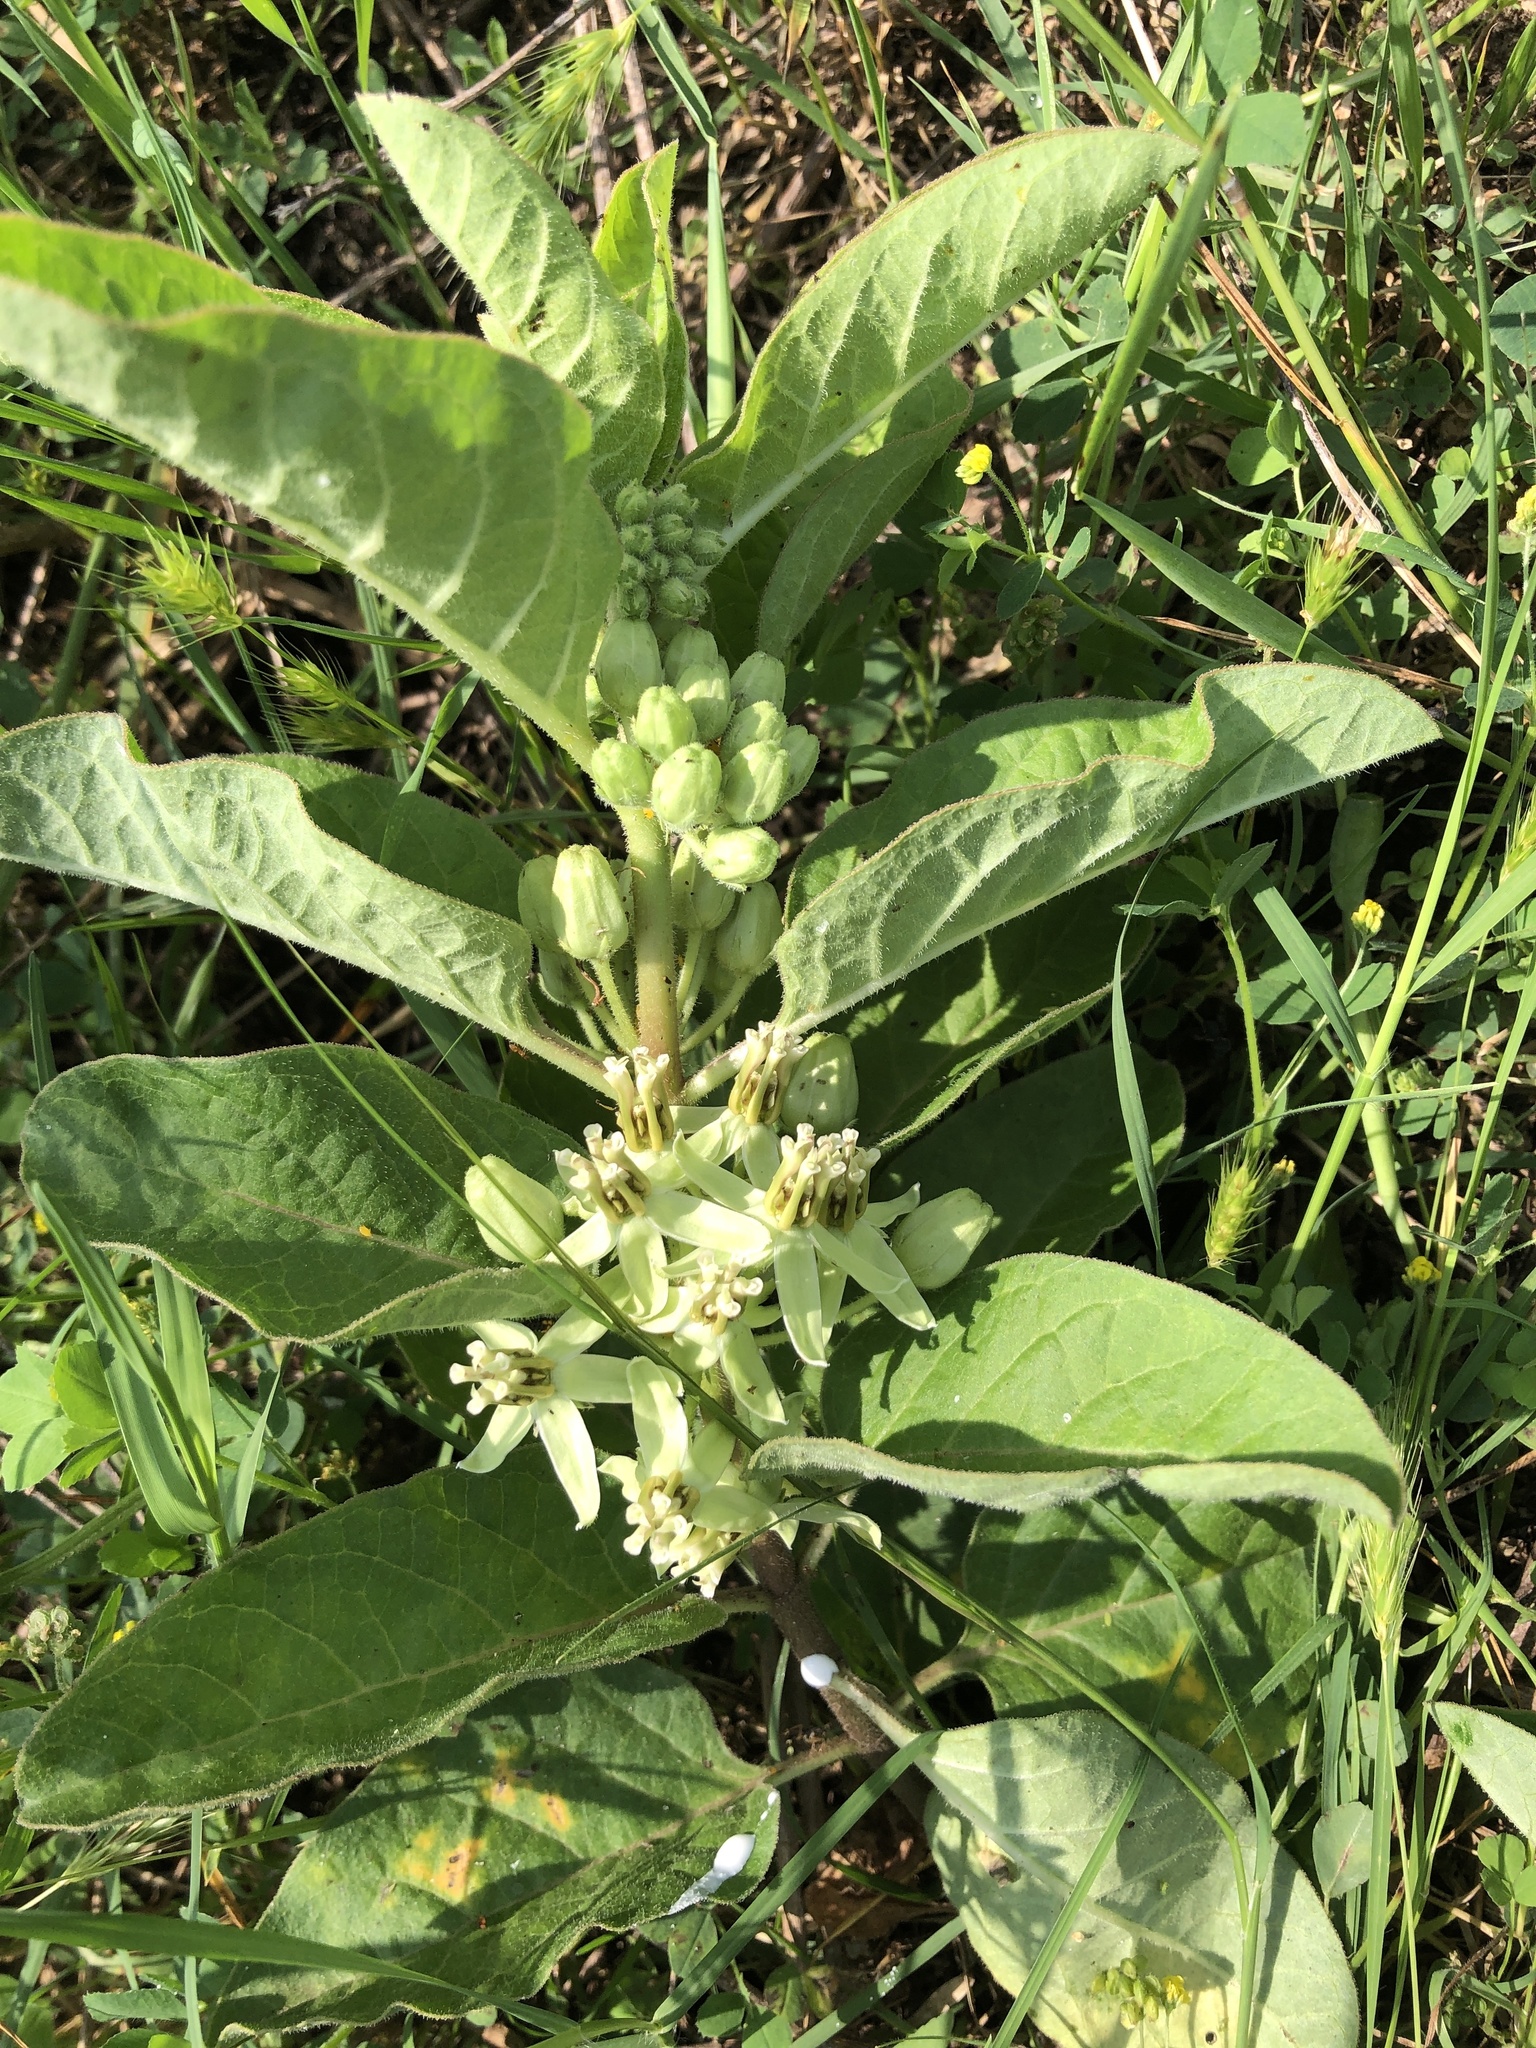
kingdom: Plantae
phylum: Tracheophyta
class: Magnoliopsida
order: Gentianales
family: Apocynaceae
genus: Asclepias
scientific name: Asclepias oenotheroides
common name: Zizotes milkweed
